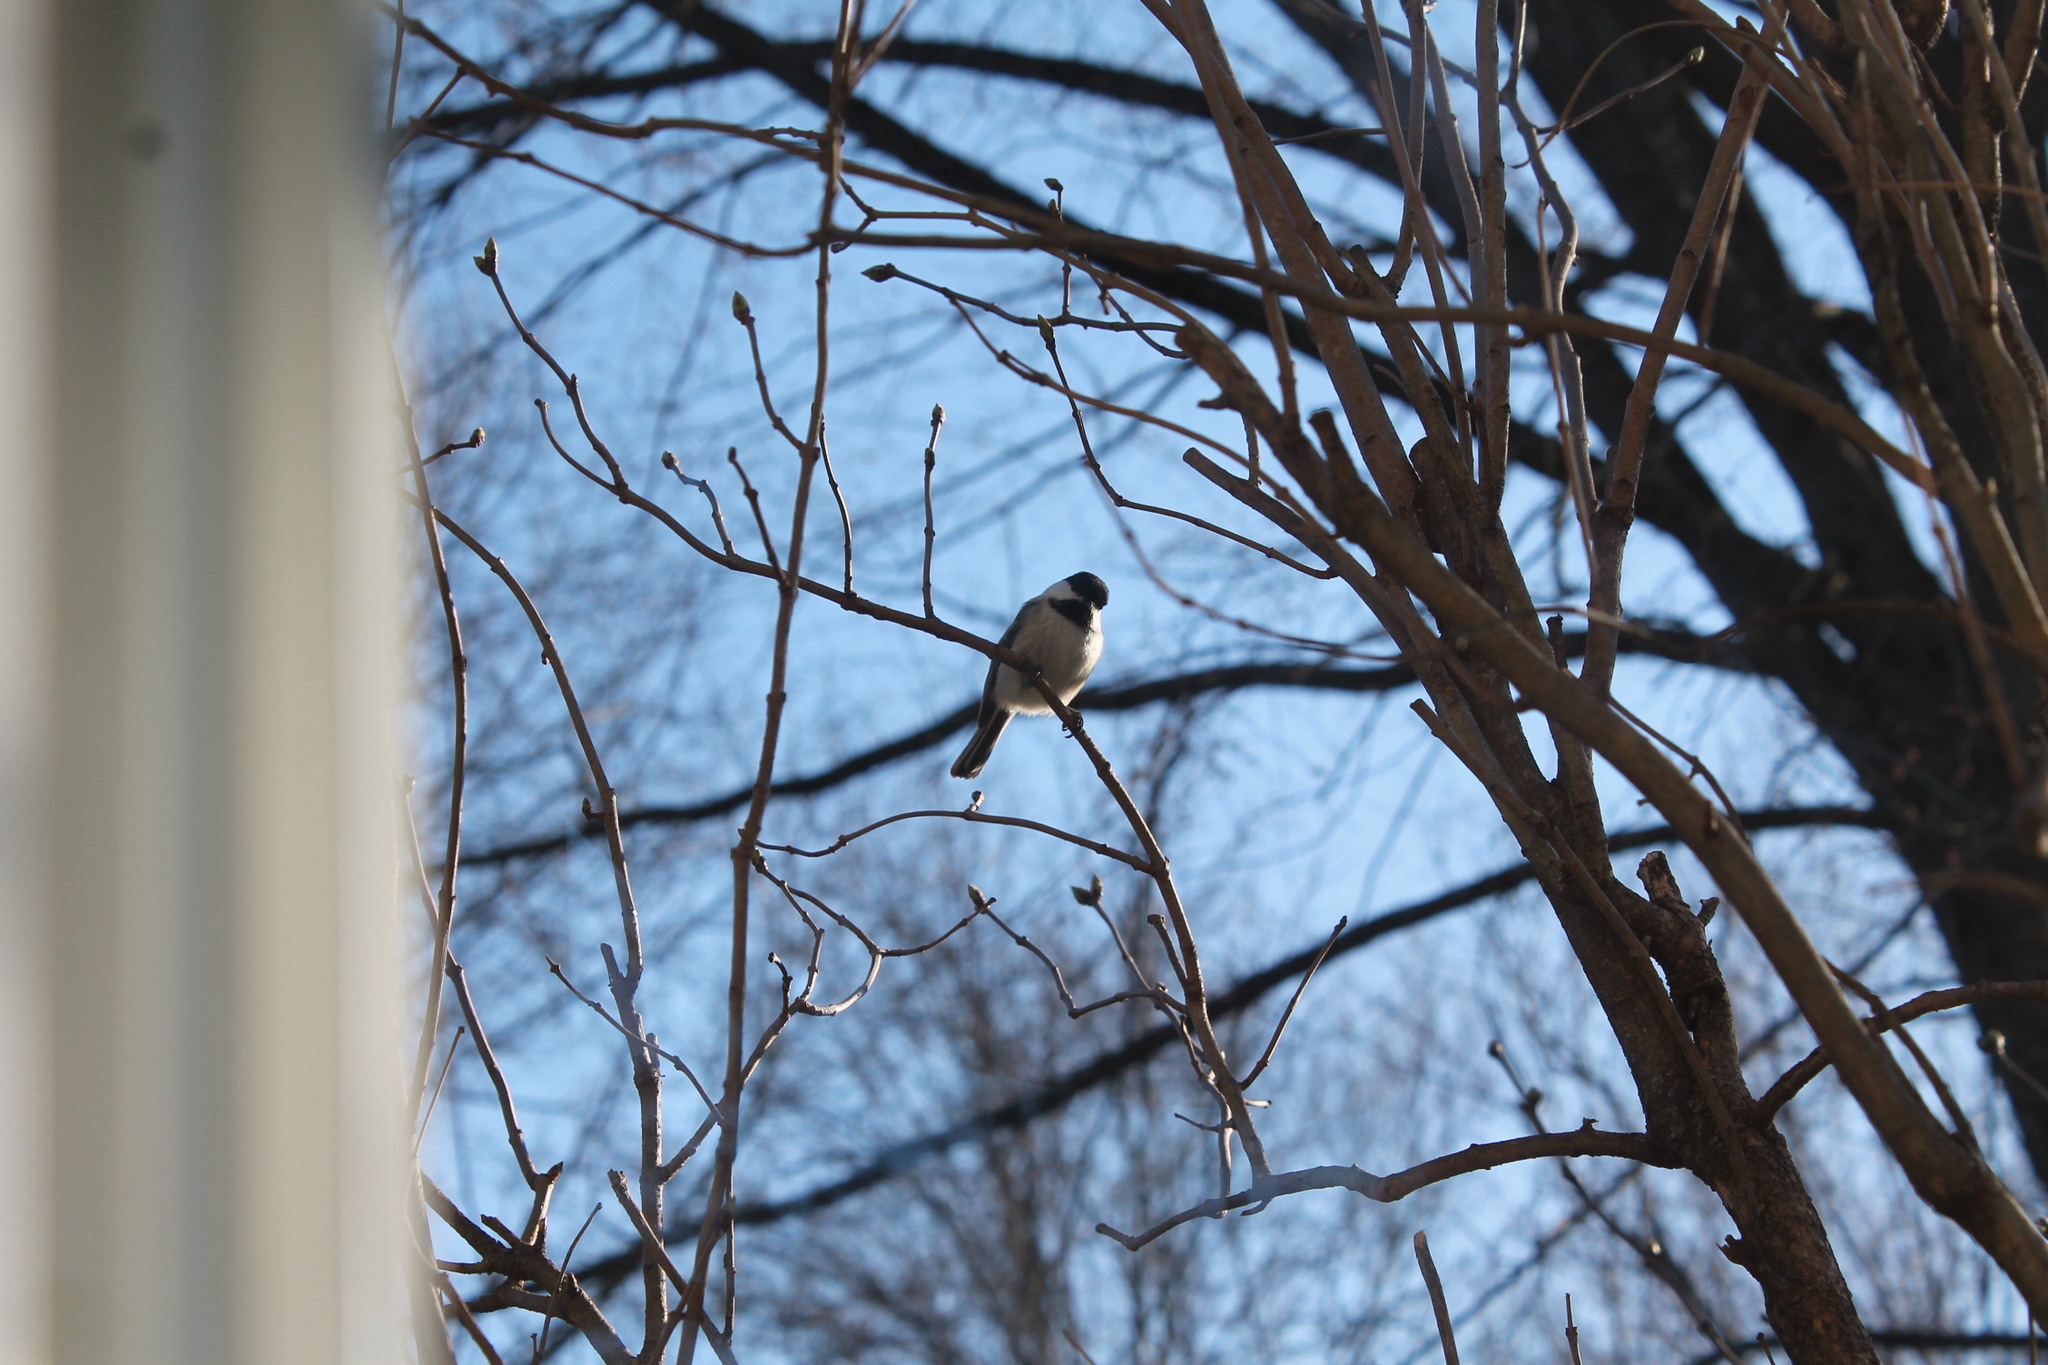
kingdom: Animalia
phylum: Chordata
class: Aves
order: Passeriformes
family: Paridae
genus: Poecile
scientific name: Poecile atricapillus
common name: Black-capped chickadee
